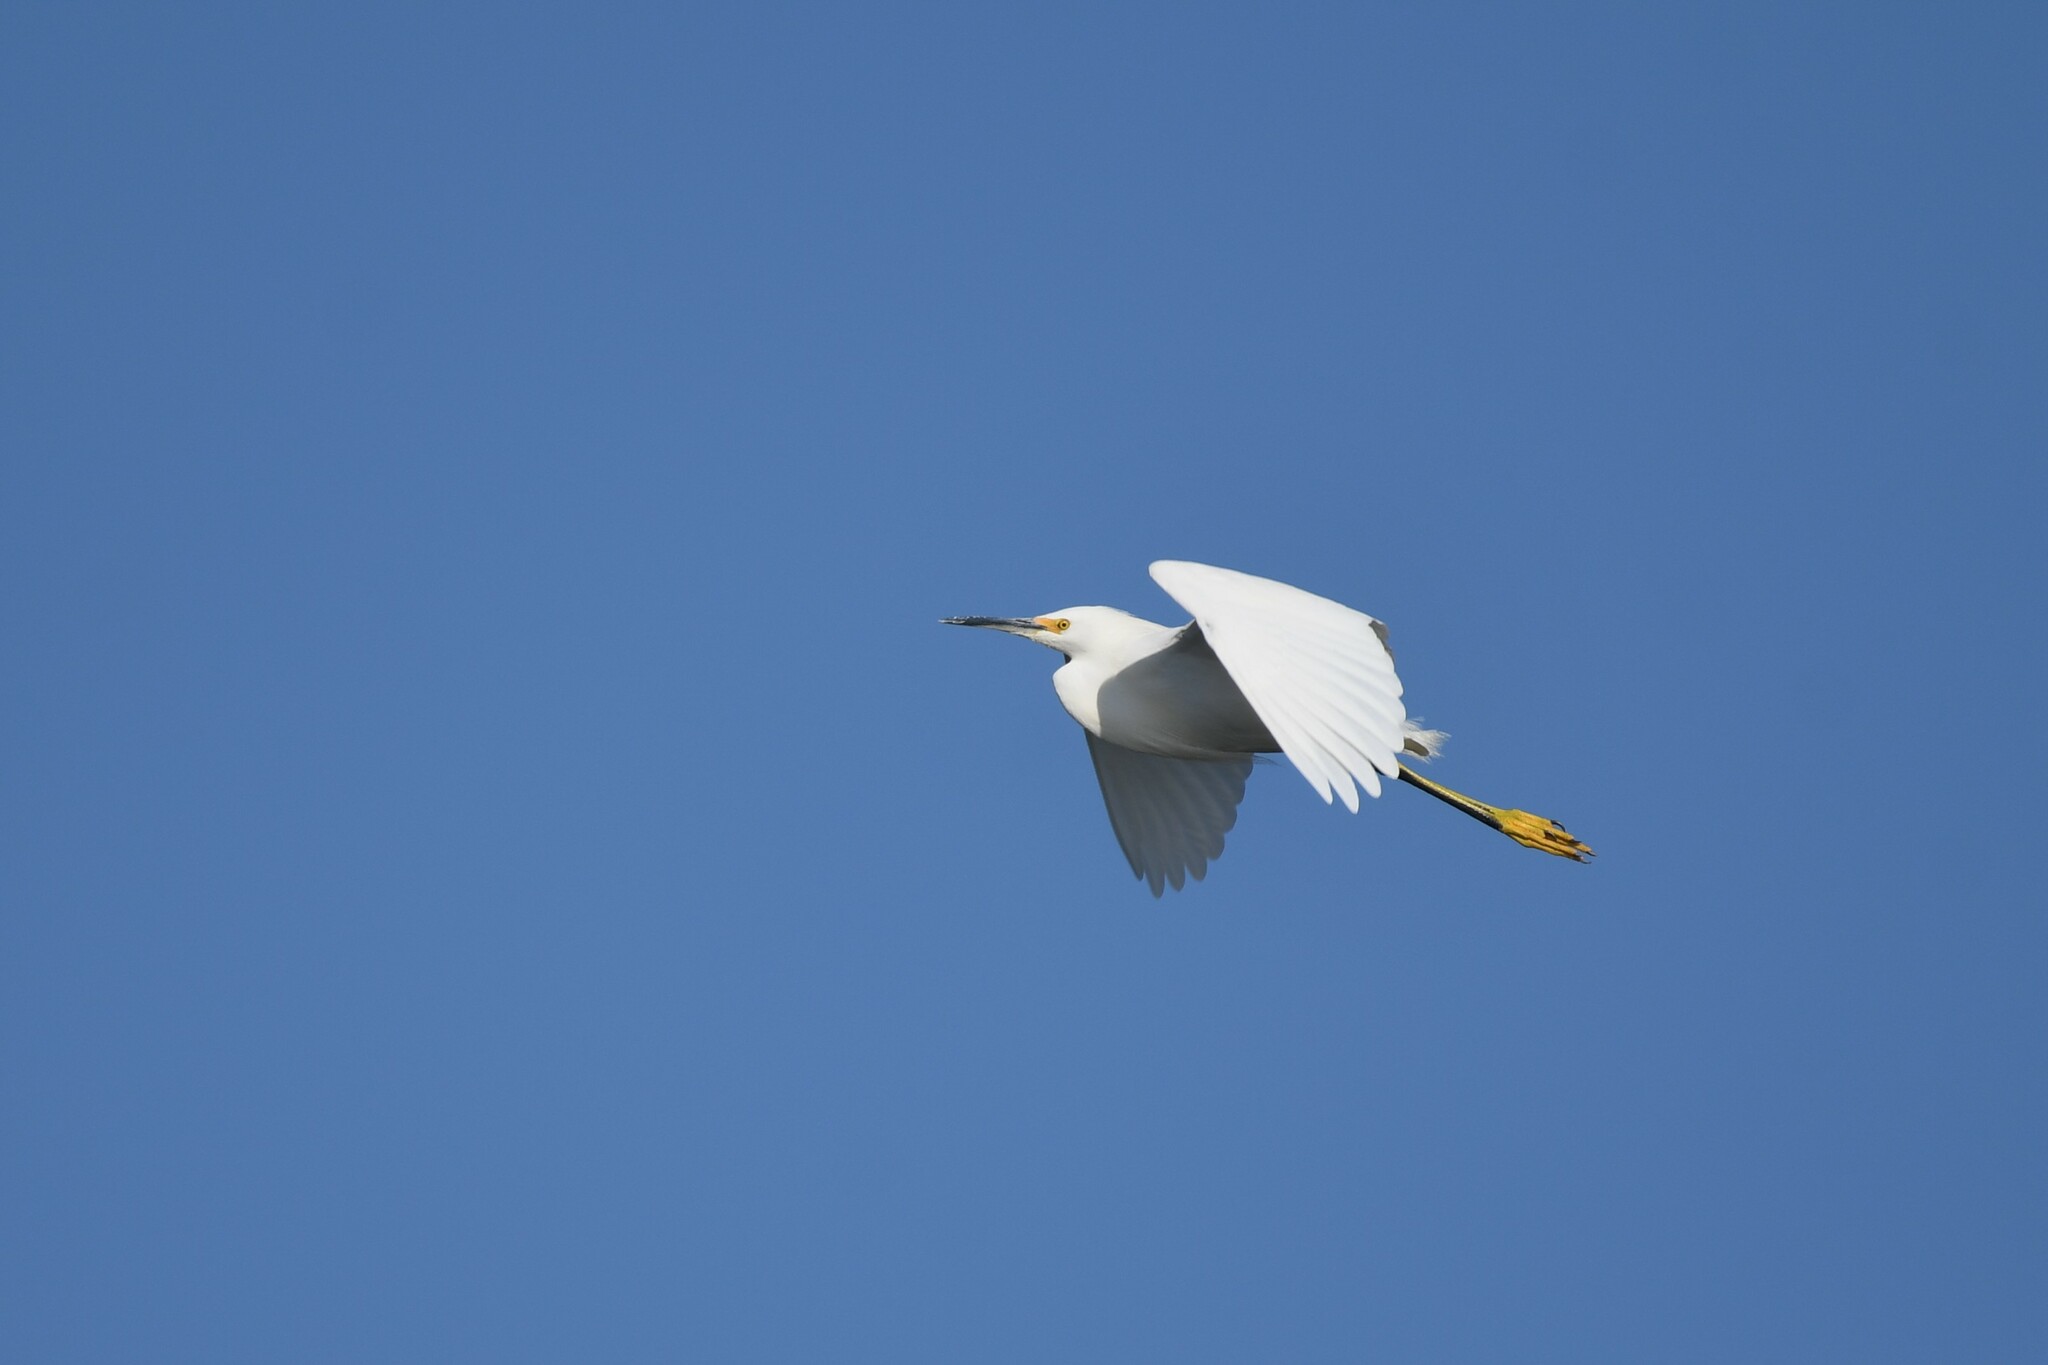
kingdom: Animalia
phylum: Chordata
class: Aves
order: Pelecaniformes
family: Ardeidae
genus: Egretta
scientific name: Egretta thula
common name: Snowy egret
